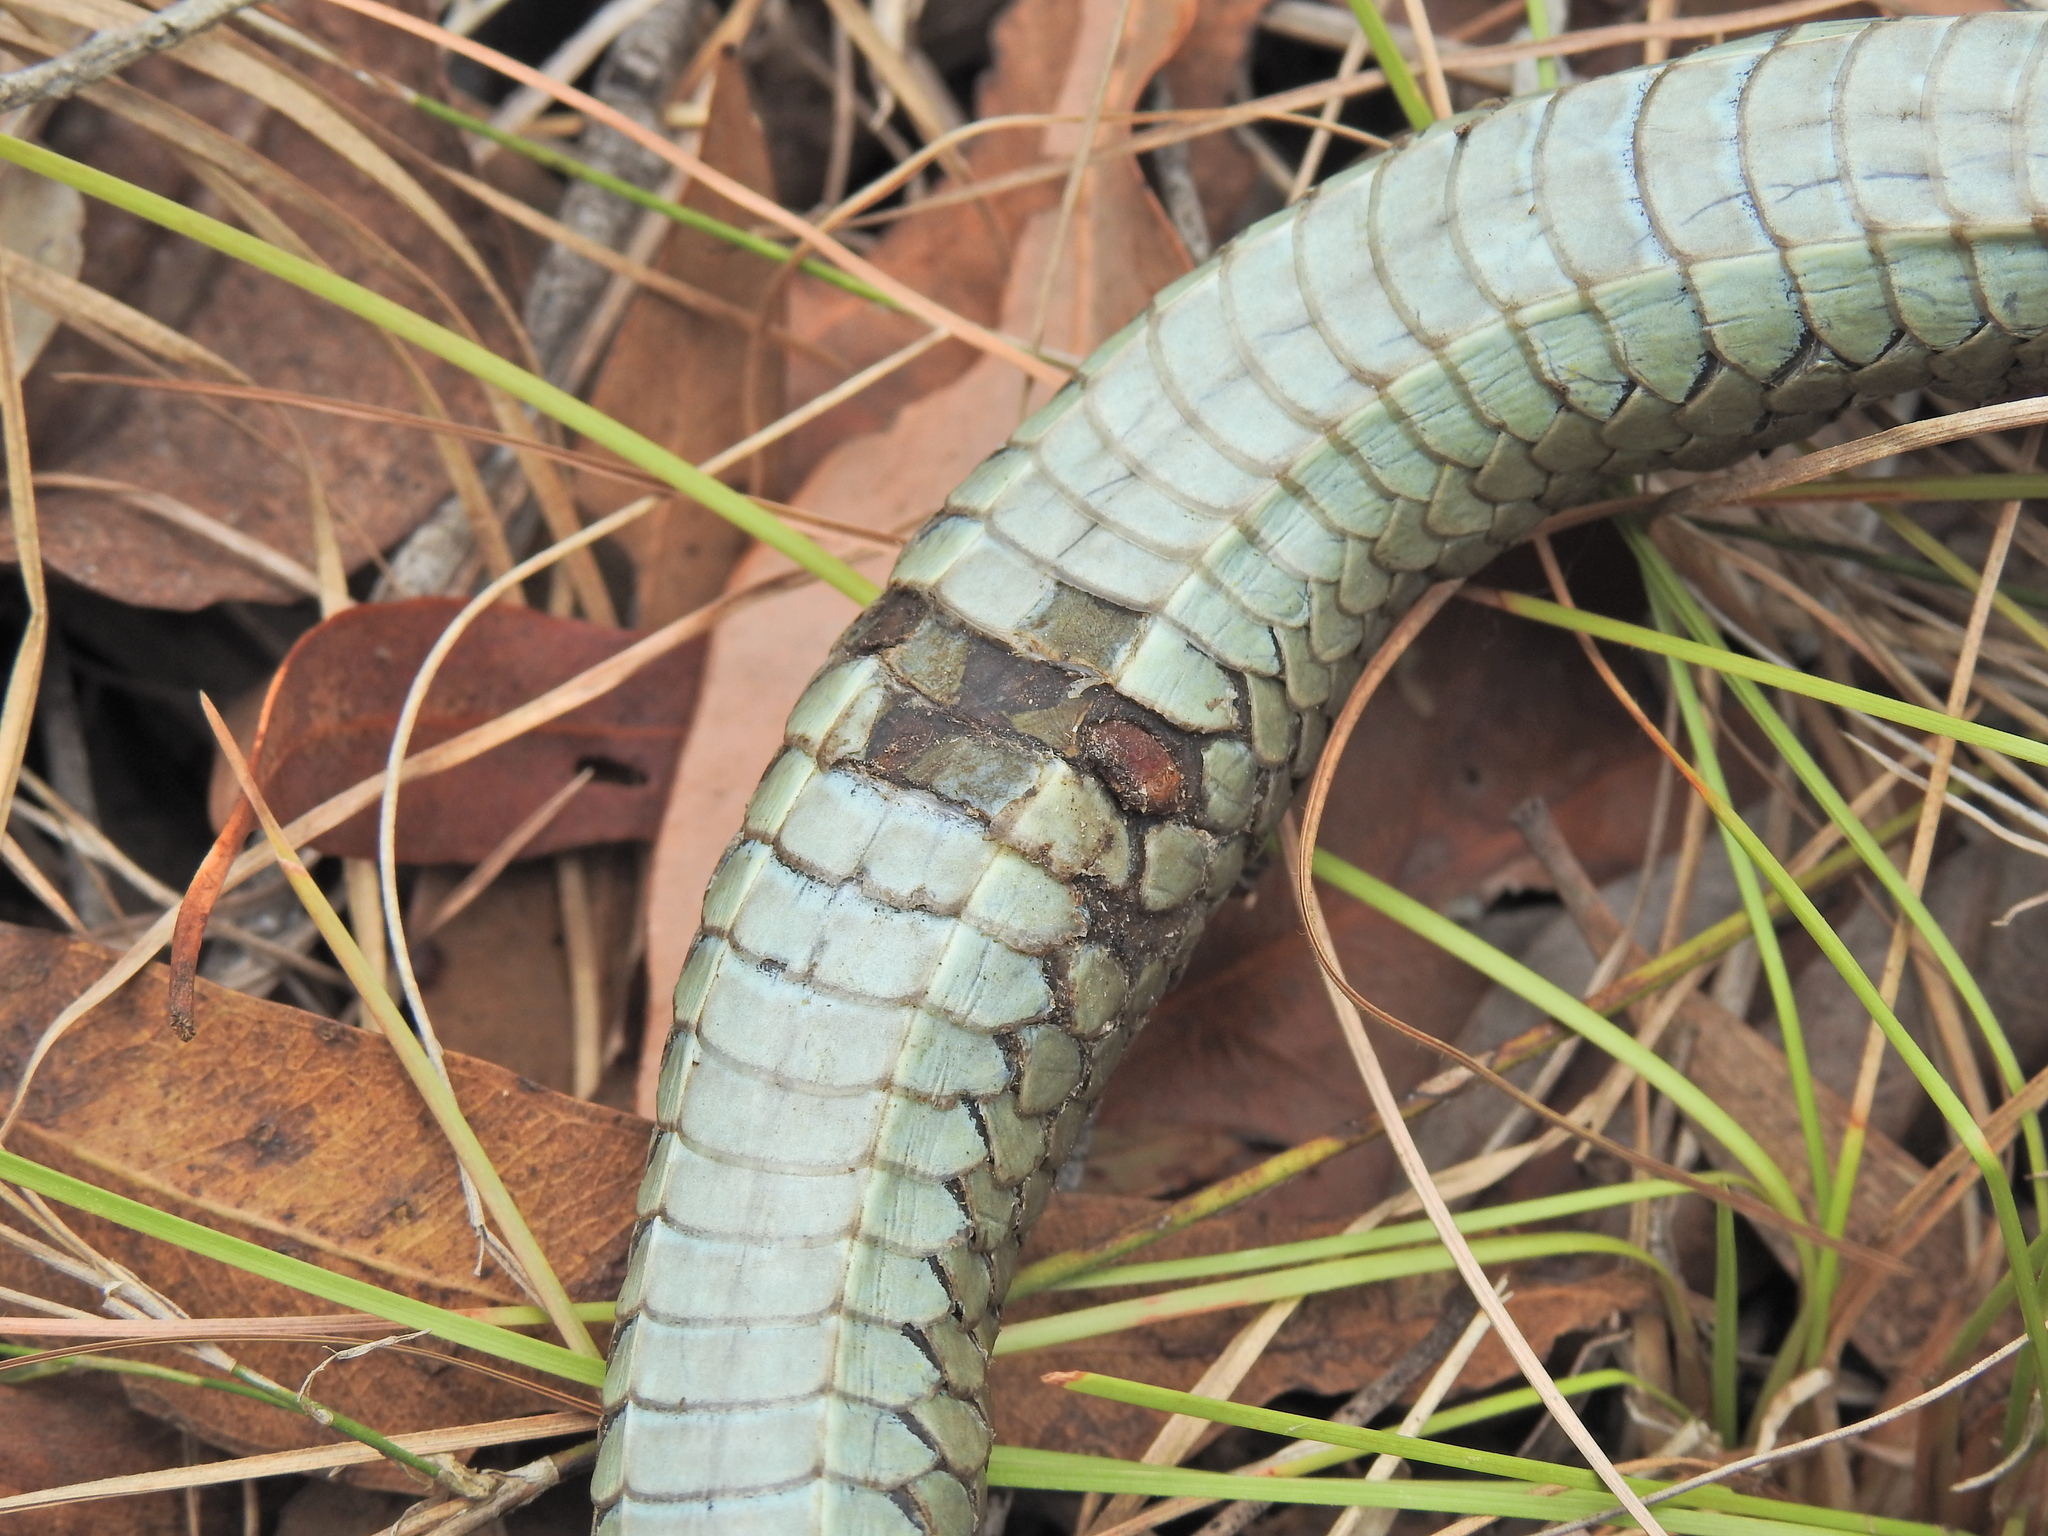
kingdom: Animalia
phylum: Chordata
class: Squamata
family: Colubridae
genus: Dendrelaphis
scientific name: Dendrelaphis punctulatus
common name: Common tree snake
